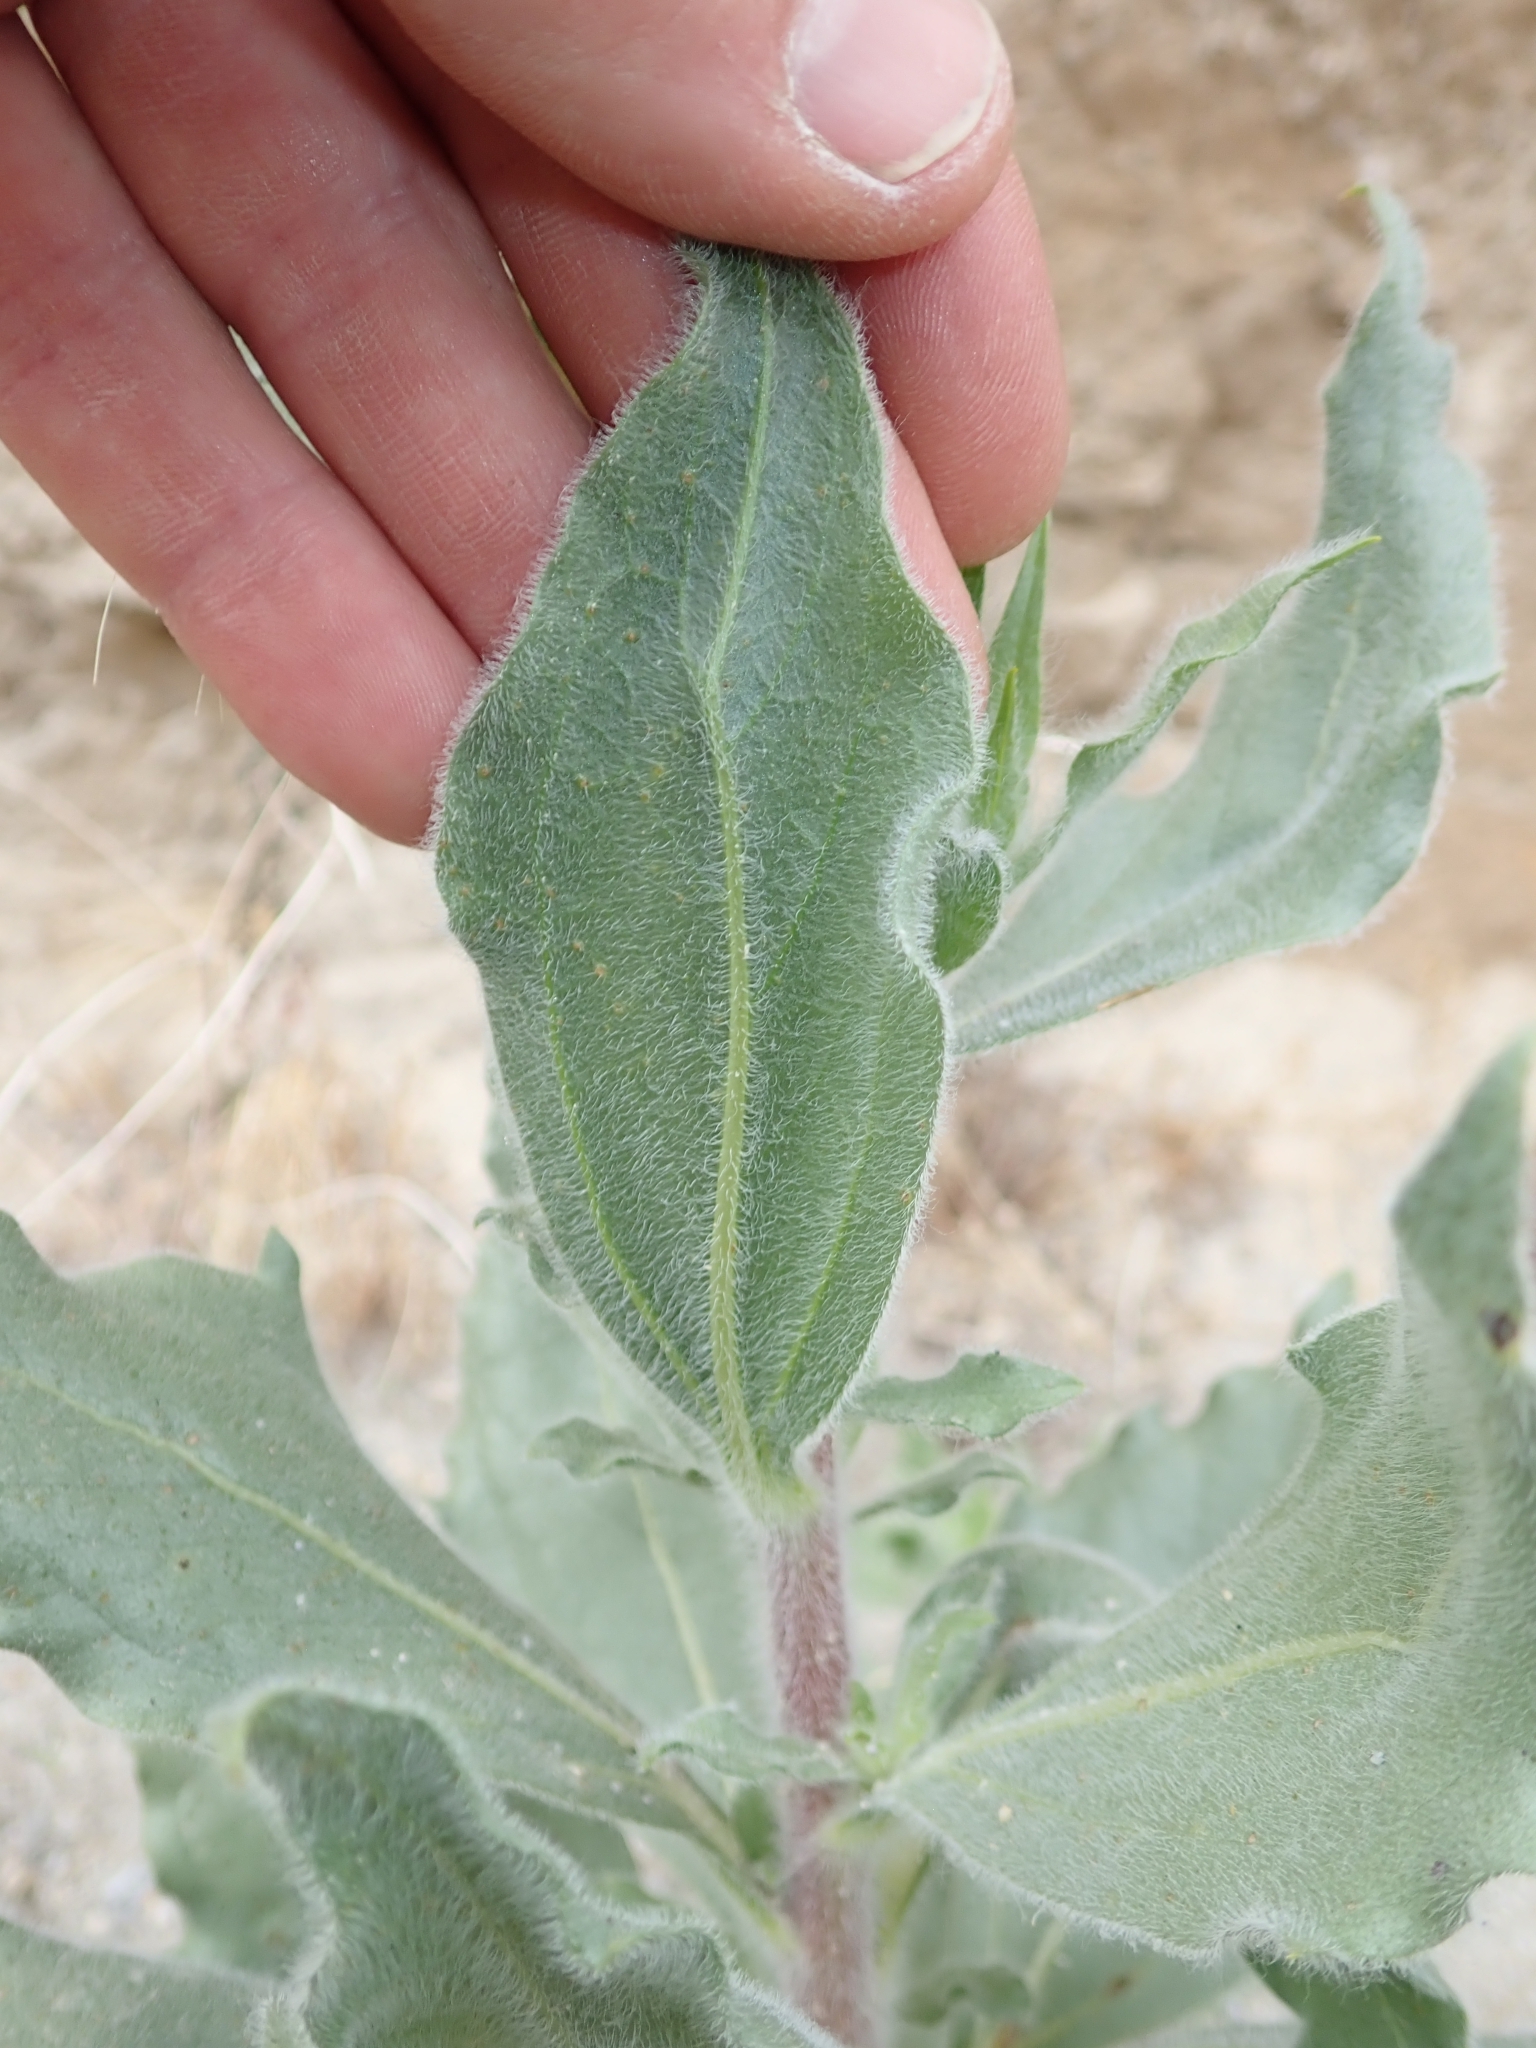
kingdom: Plantae
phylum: Tracheophyta
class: Magnoliopsida
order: Asterales
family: Asteraceae
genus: Geraea
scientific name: Geraea canescens
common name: Desert-gold
